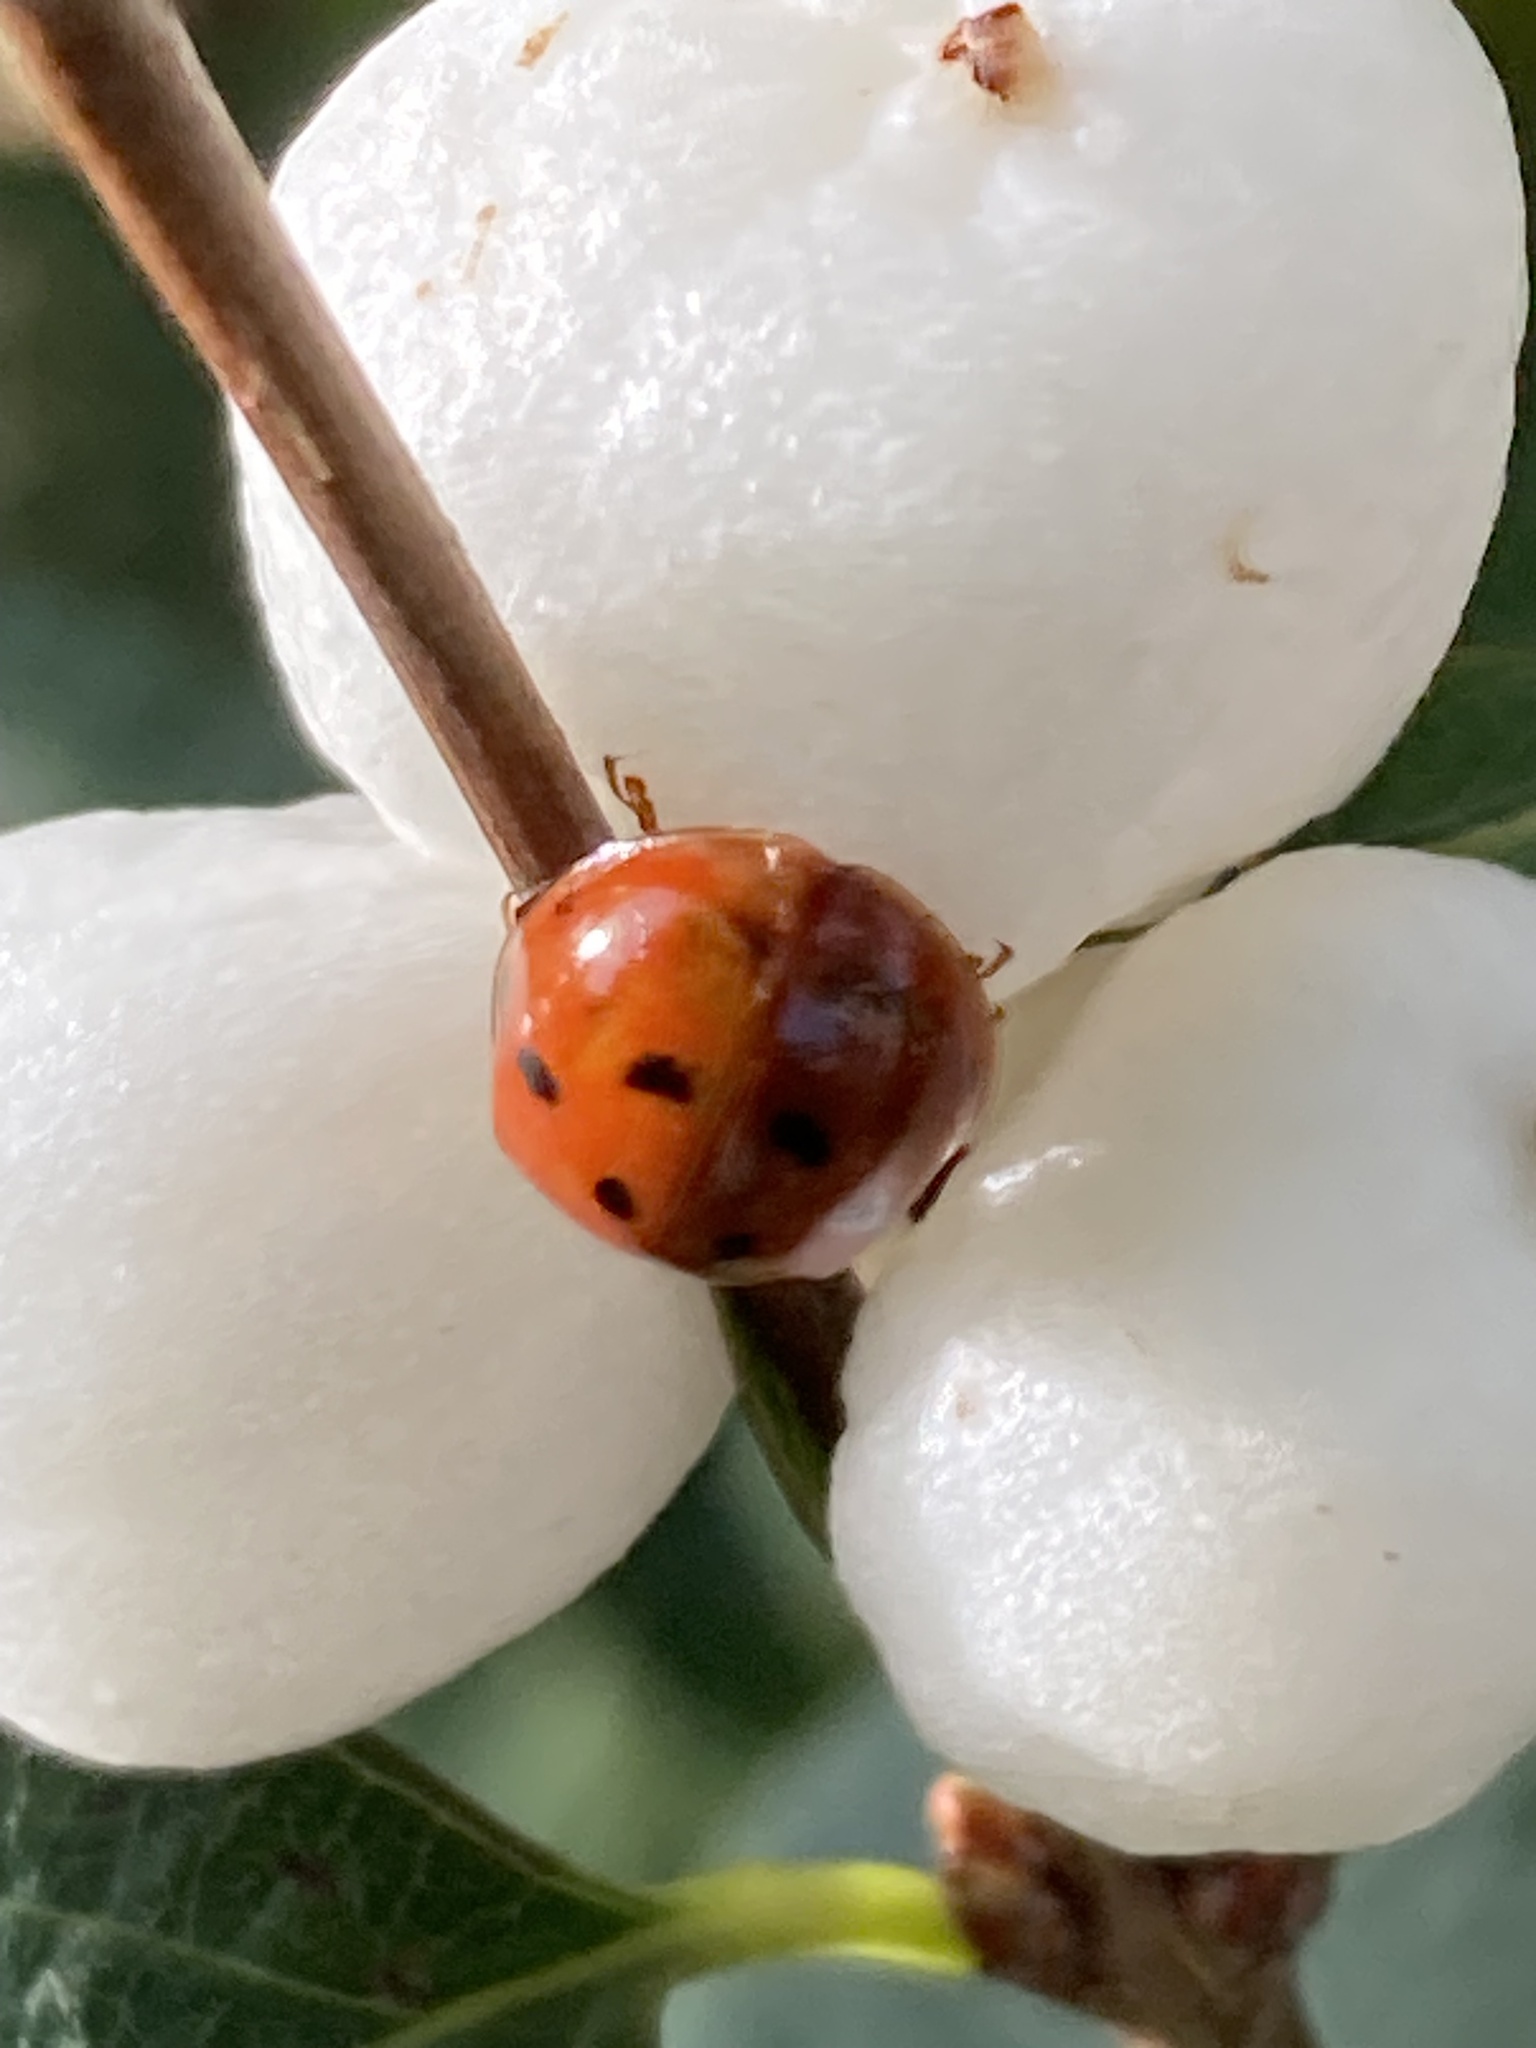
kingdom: Animalia
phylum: Arthropoda
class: Insecta
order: Coleoptera
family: Coccinellidae
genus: Harmonia
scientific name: Harmonia axyridis
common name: Harlequin ladybird
